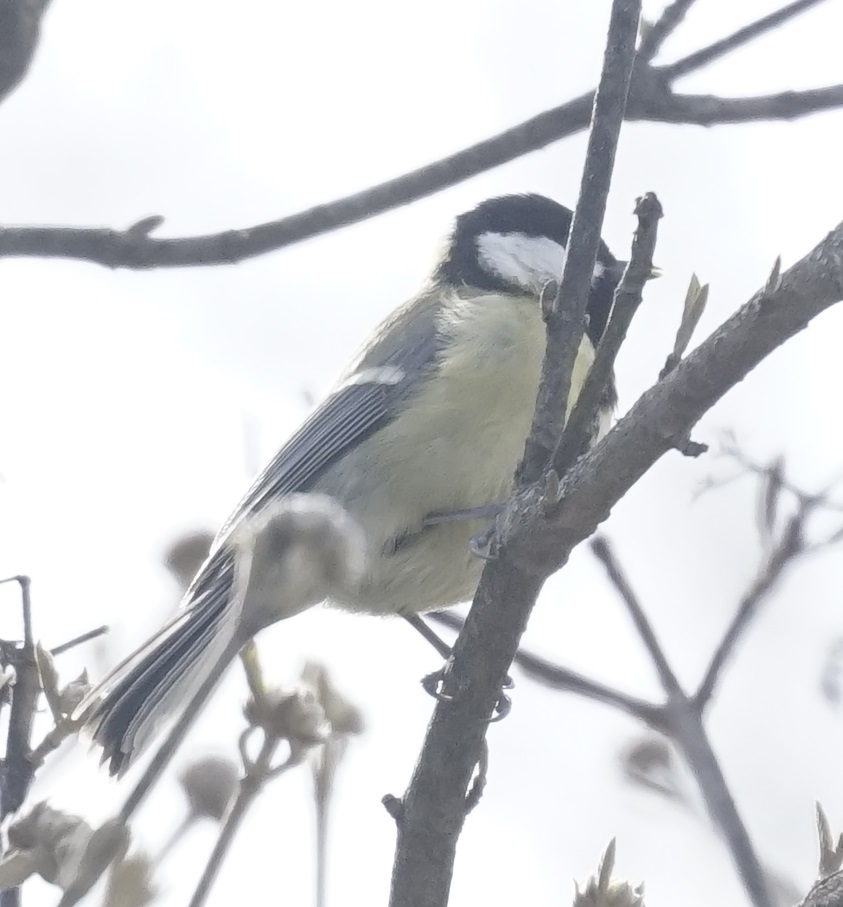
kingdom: Animalia
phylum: Chordata
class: Aves
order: Passeriformes
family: Paridae
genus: Parus
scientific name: Parus major
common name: Great tit
